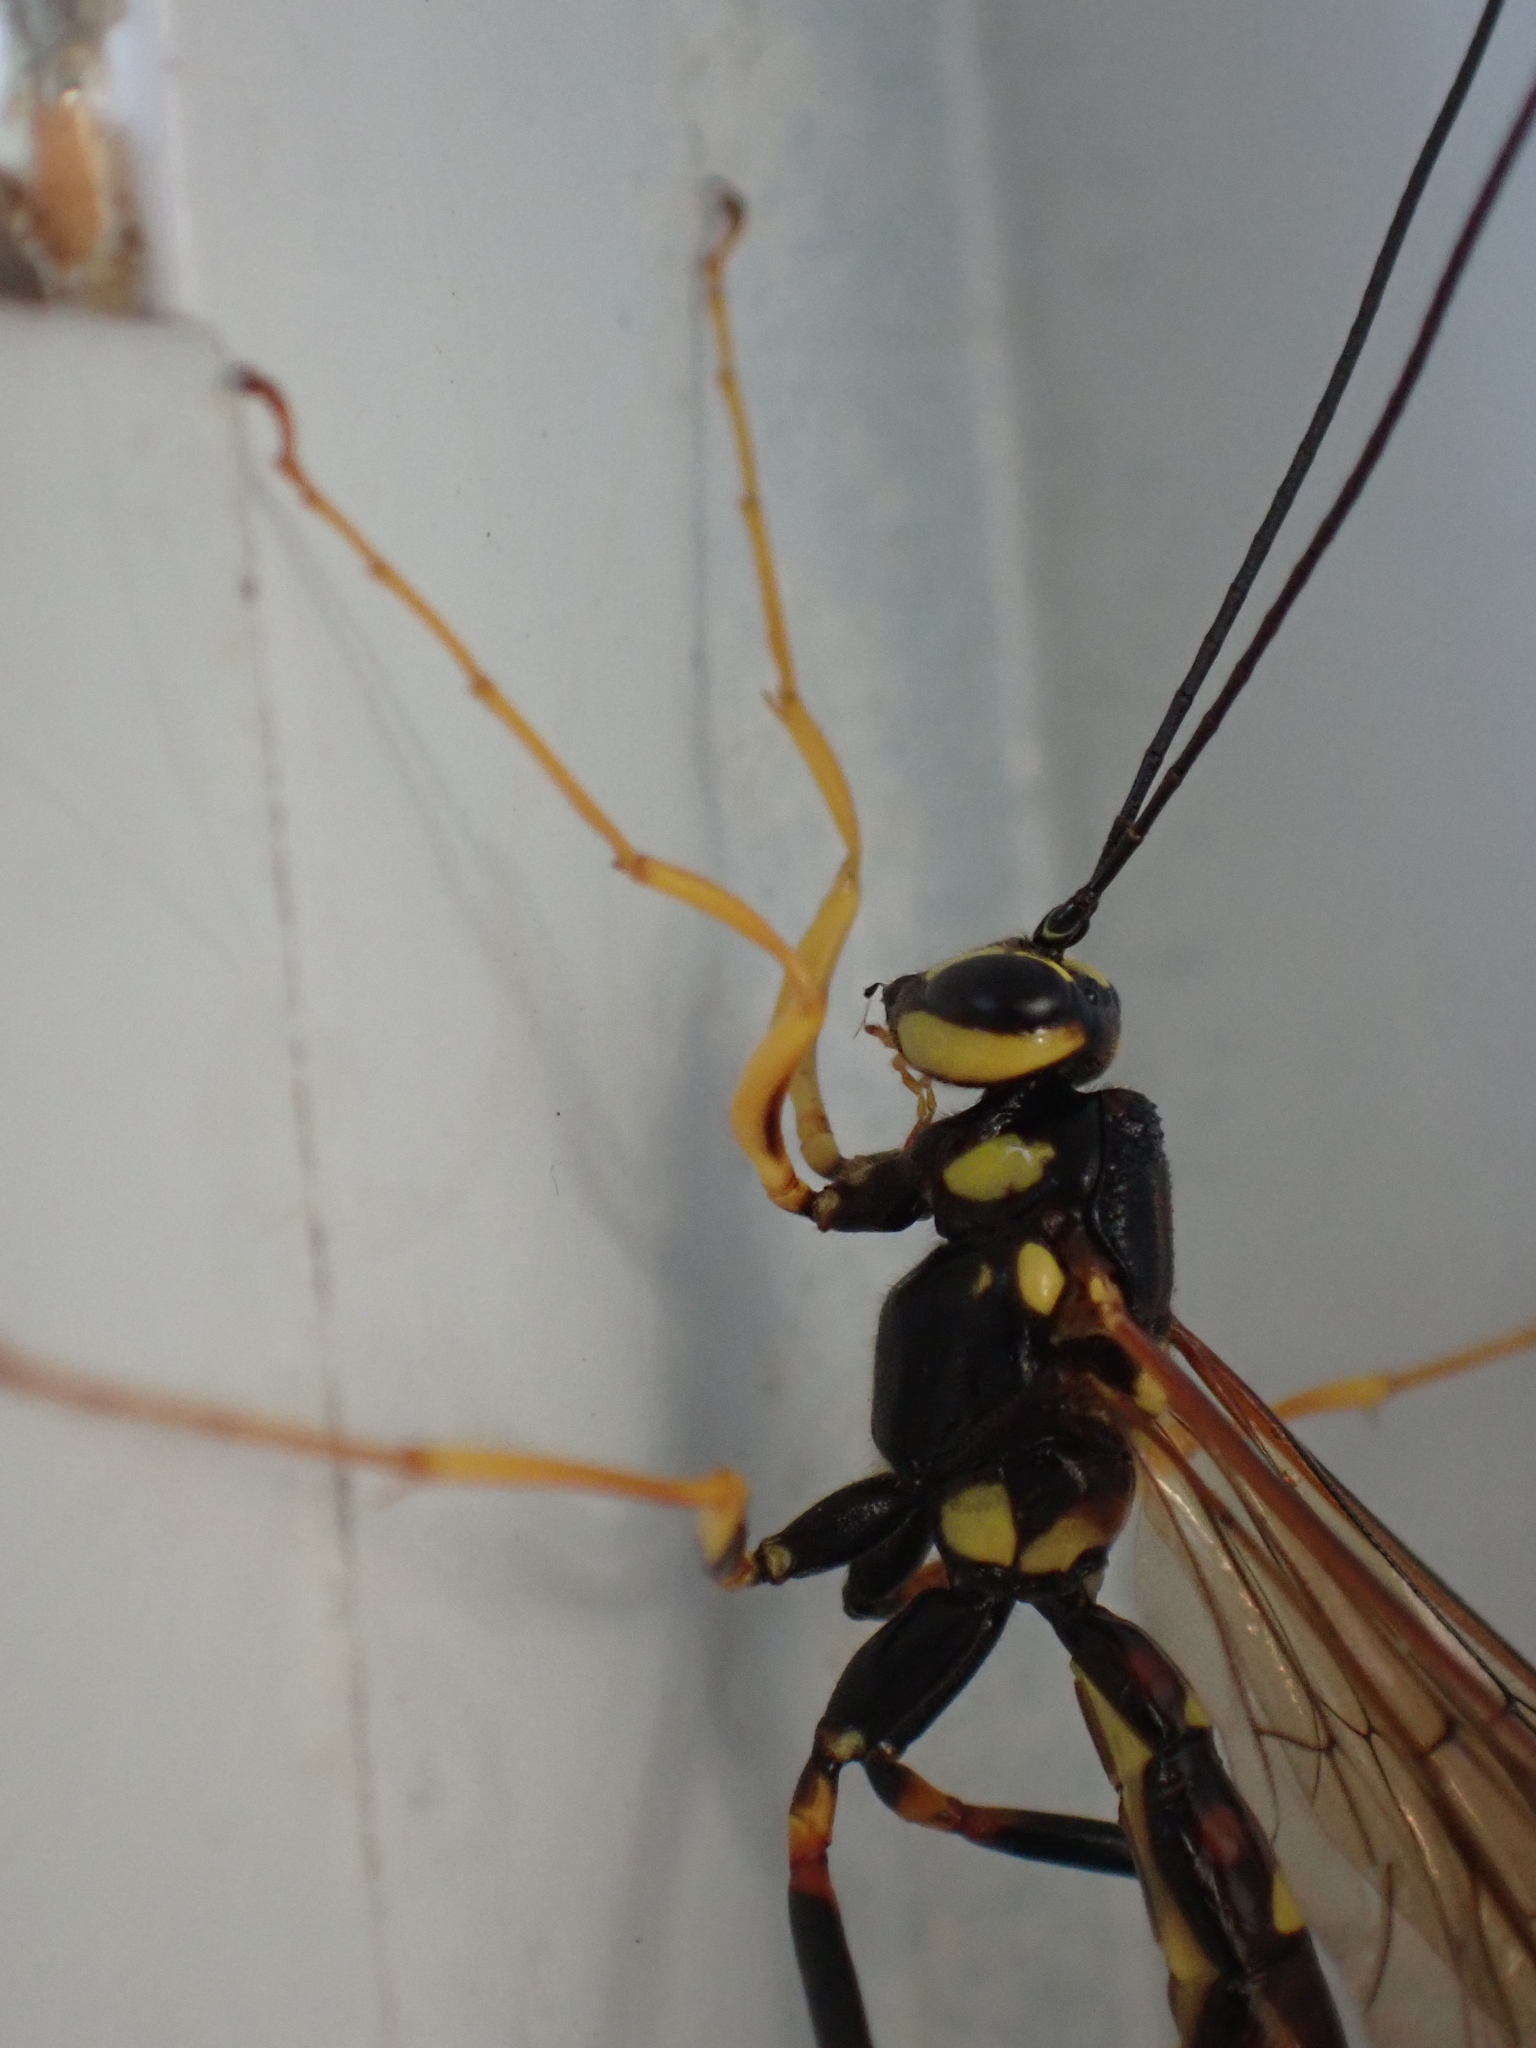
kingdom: Animalia
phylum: Arthropoda
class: Insecta
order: Hymenoptera
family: Ichneumonidae
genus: Megarhyssa
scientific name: Megarhyssa nortoni
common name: Norton's giant ichneumonid wasp
